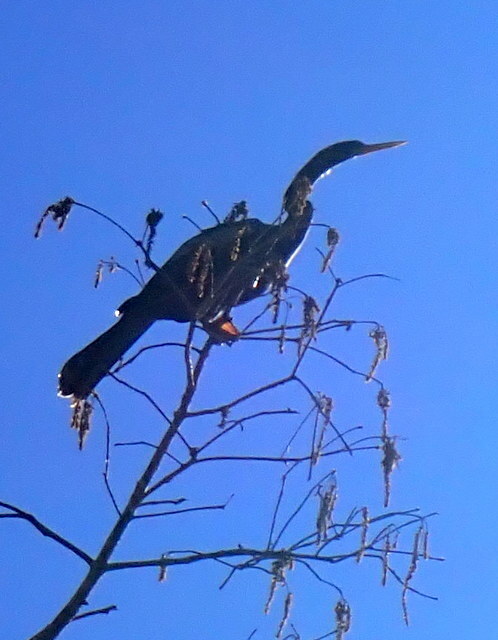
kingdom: Animalia
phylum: Chordata
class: Aves
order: Suliformes
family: Anhingidae
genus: Anhinga
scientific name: Anhinga anhinga
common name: Anhinga
